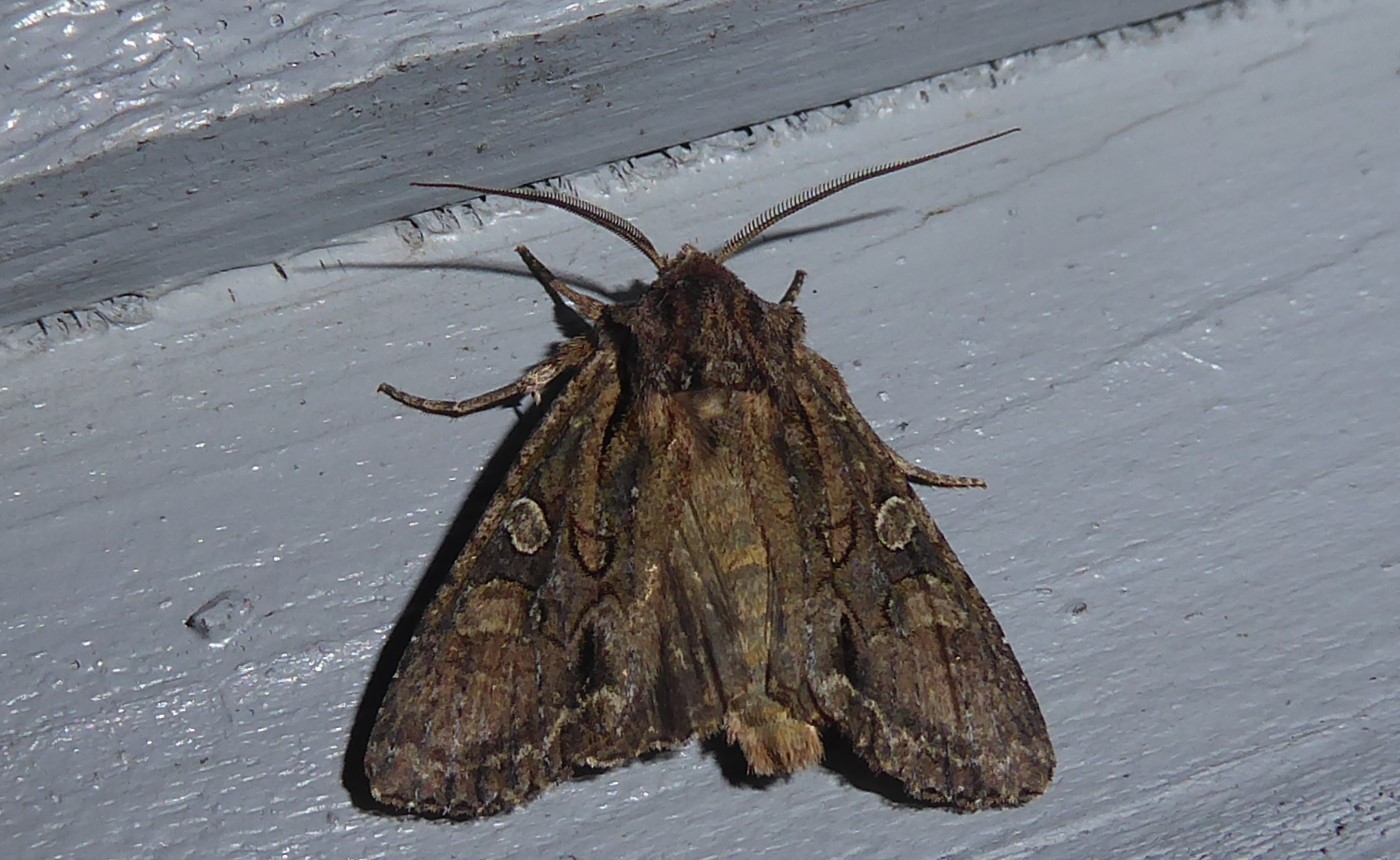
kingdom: Animalia
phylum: Arthropoda
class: Insecta
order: Lepidoptera
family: Noctuidae
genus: Ichneutica
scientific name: Ichneutica mutans
